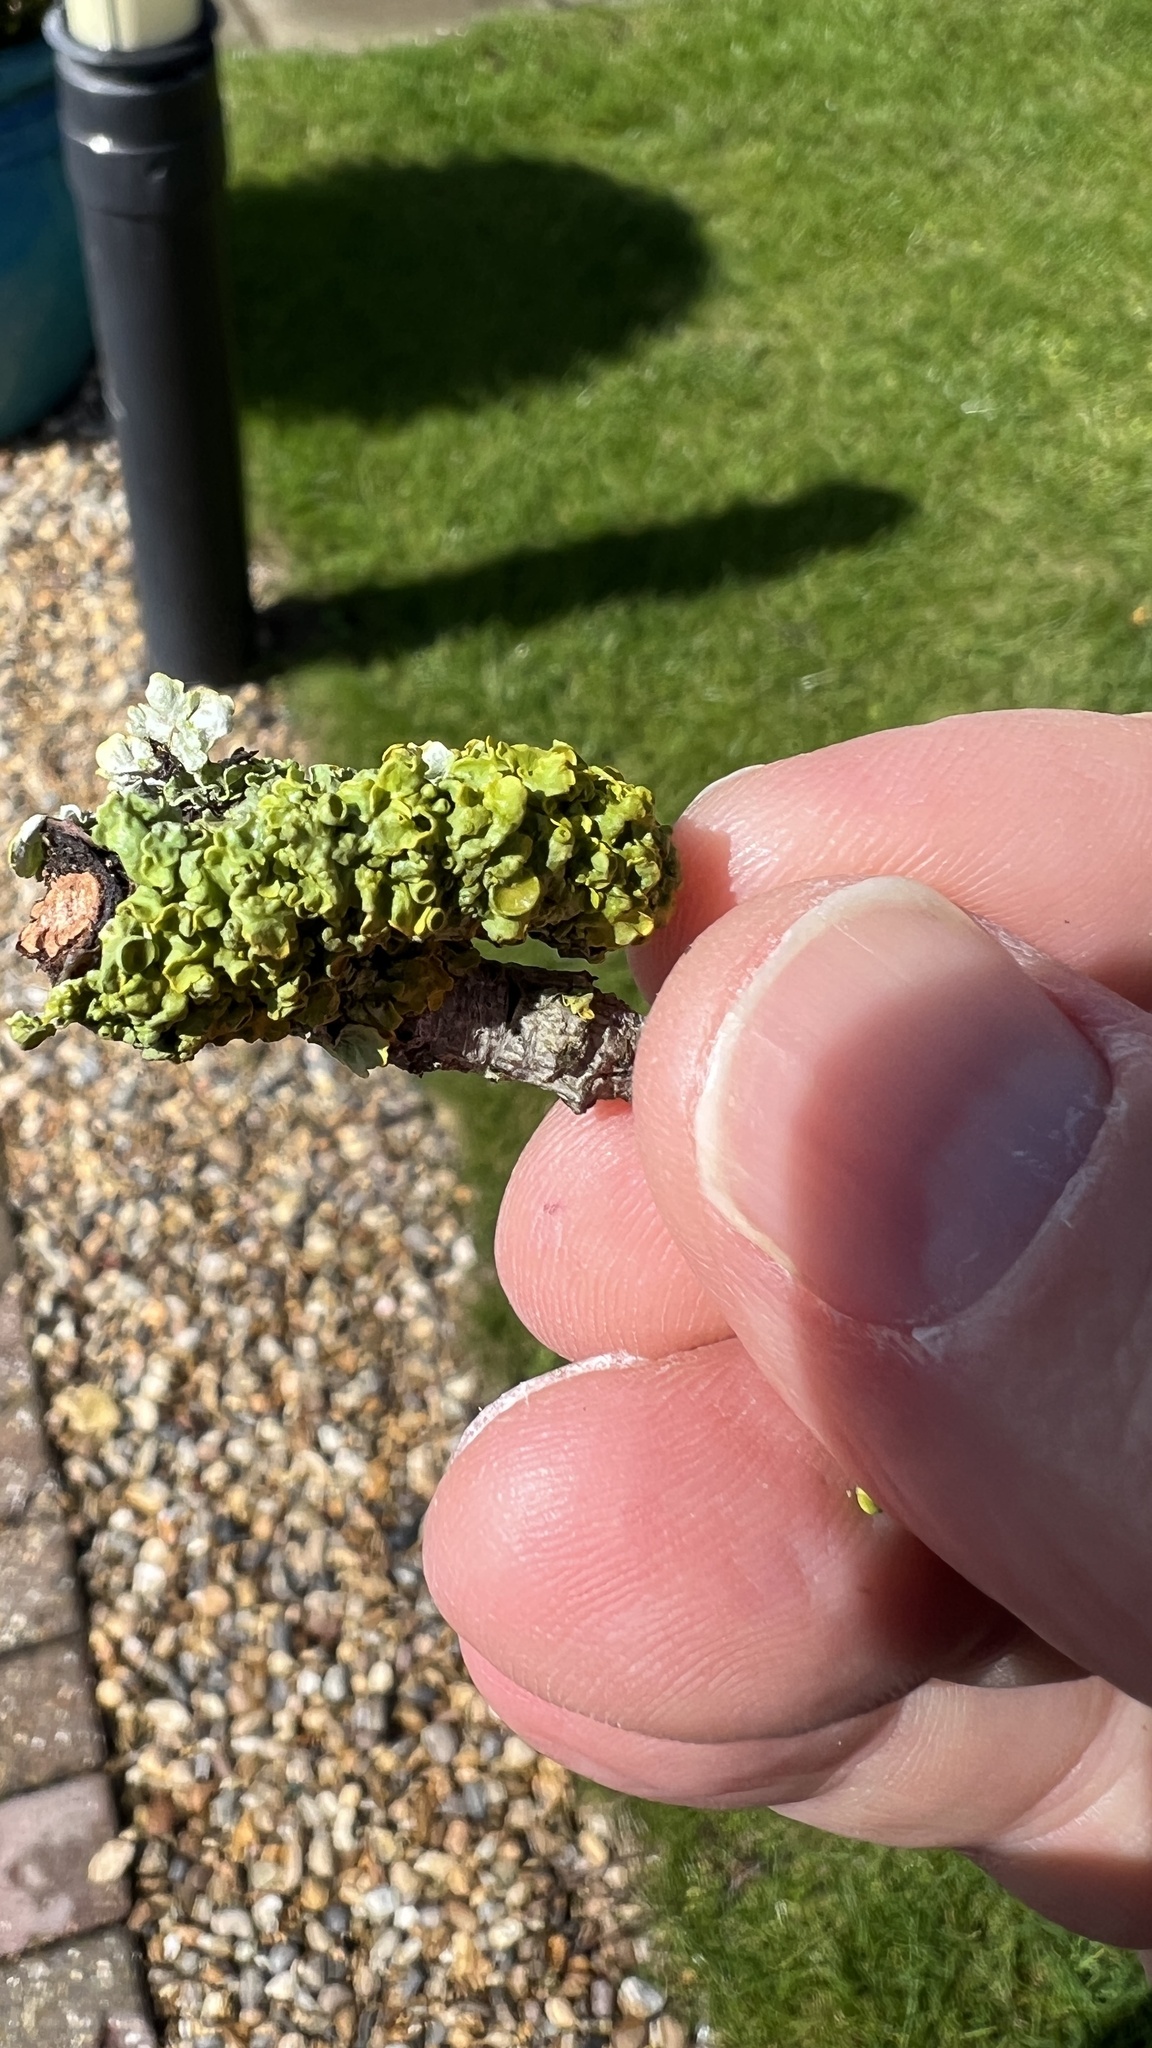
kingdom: Fungi
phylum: Ascomycota
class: Lecanoromycetes
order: Teloschistales
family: Teloschistaceae
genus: Xanthoria
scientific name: Xanthoria parietina
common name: Common orange lichen
